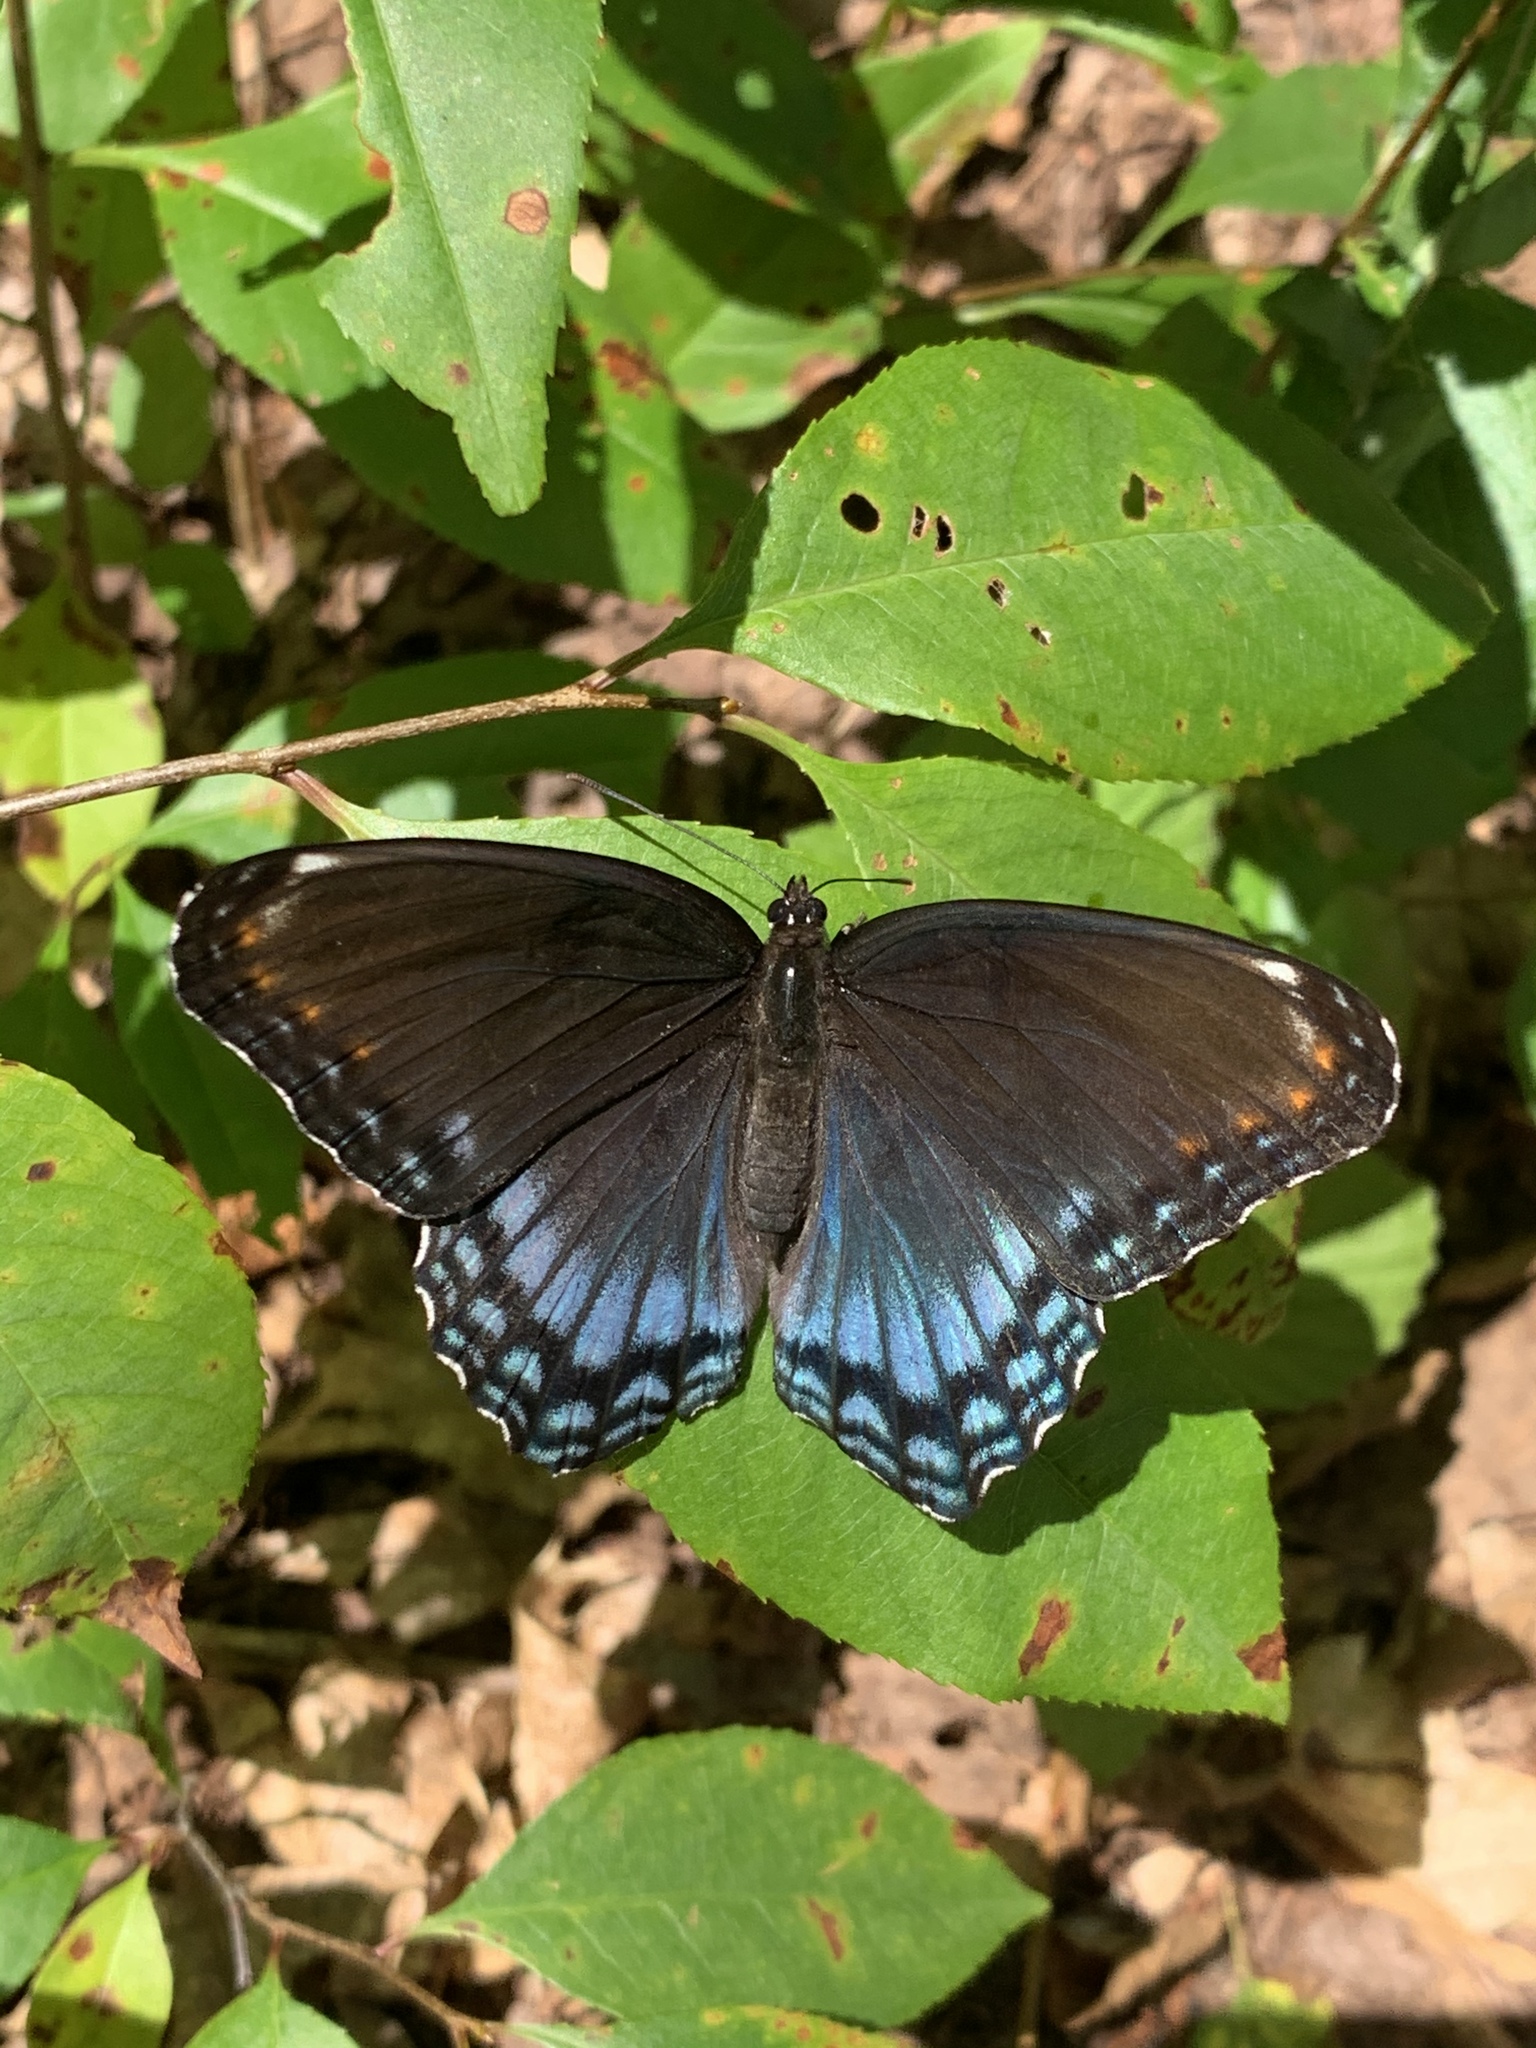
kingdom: Animalia
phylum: Arthropoda
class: Insecta
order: Lepidoptera
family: Nymphalidae
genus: Limenitis
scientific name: Limenitis astyanax
